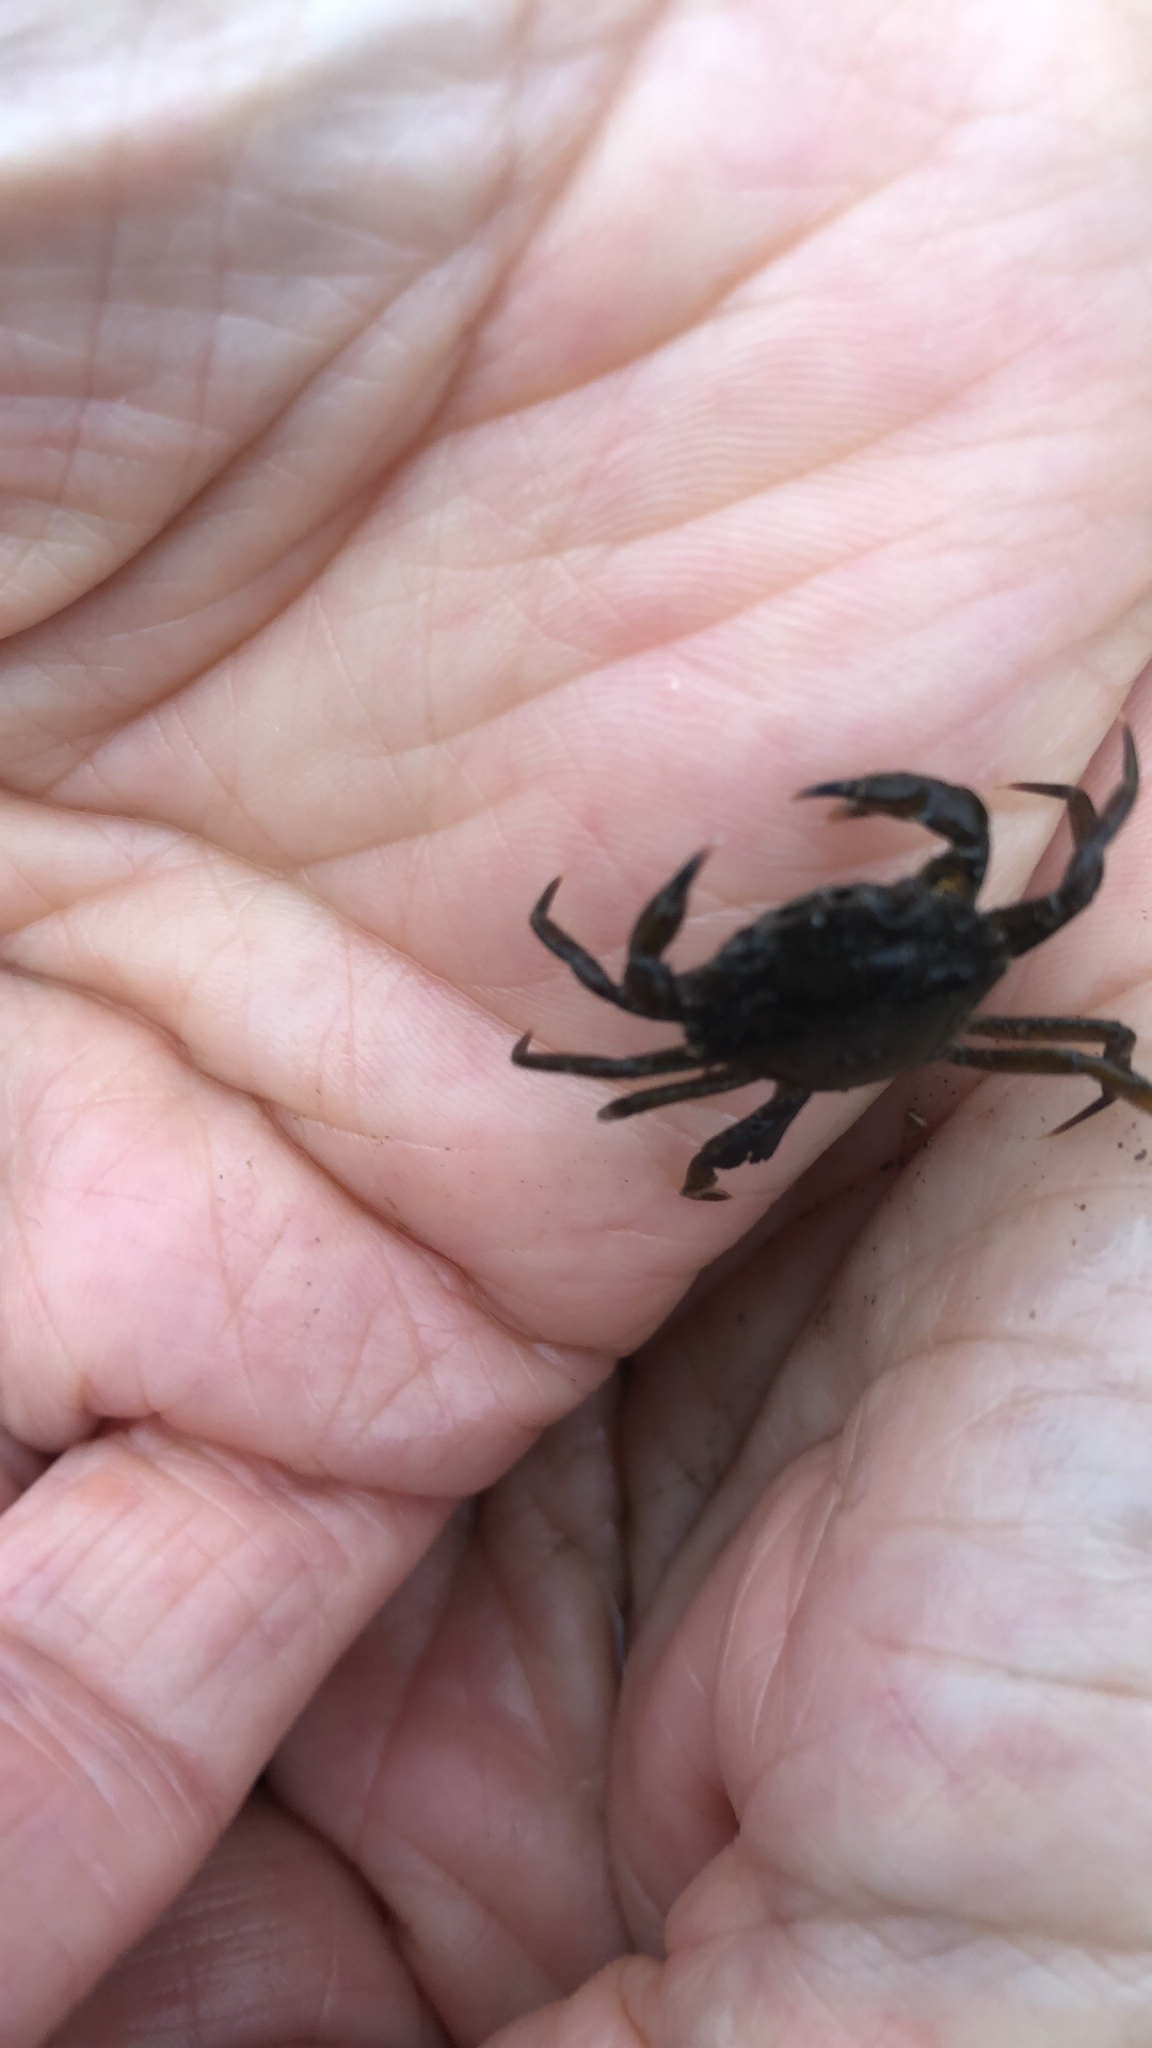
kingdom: Animalia
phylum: Arthropoda
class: Malacostraca
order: Decapoda
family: Carcinidae
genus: Carcinus
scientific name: Carcinus maenas
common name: European green crab
